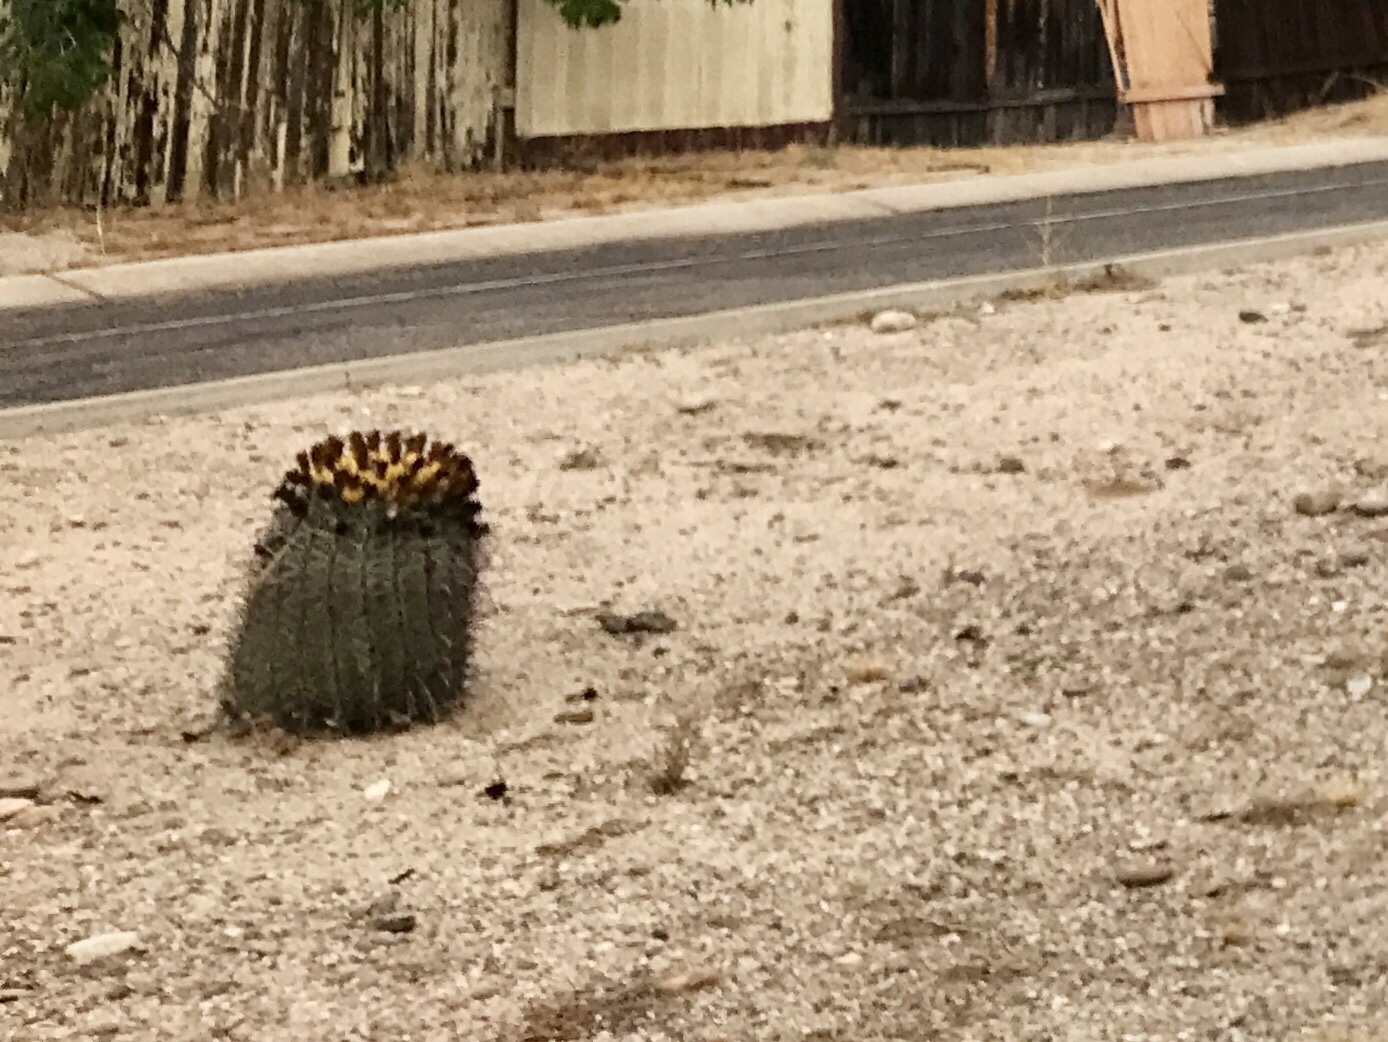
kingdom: Plantae
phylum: Tracheophyta
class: Magnoliopsida
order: Caryophyllales
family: Cactaceae
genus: Ferocactus
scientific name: Ferocactus wislizeni
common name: Candy barrel cactus
